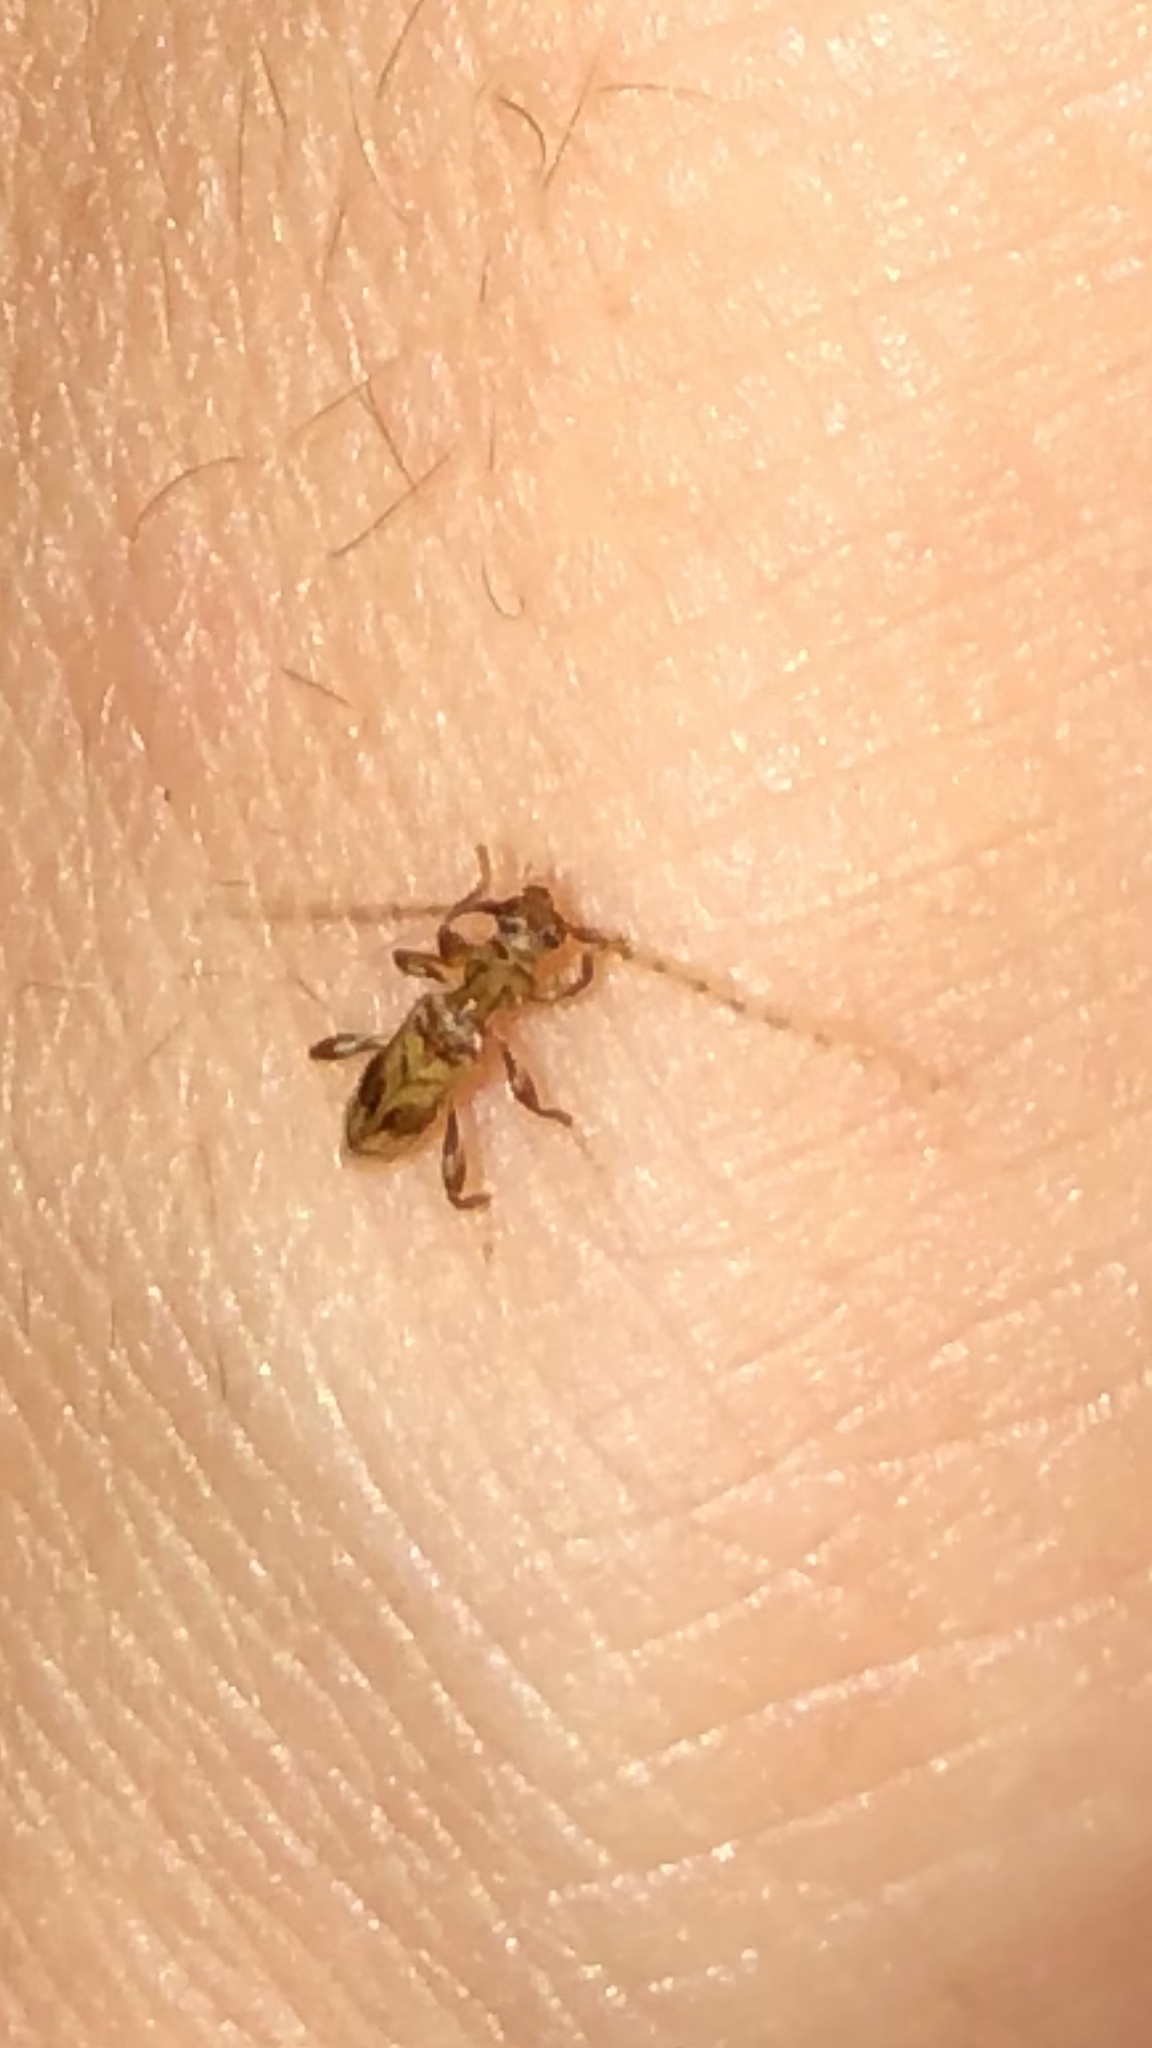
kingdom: Animalia
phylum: Arthropoda
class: Insecta
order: Coleoptera
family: Cerambycidae
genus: Obrium
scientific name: Obrium maculatum
